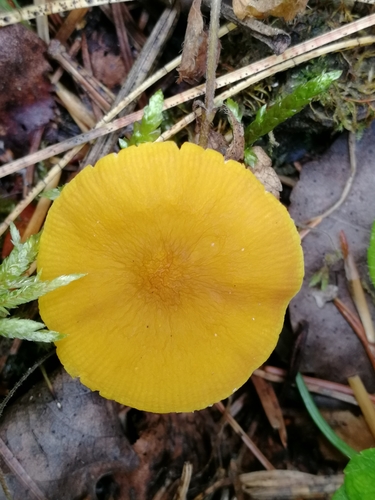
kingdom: Fungi
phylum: Basidiomycota
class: Agaricomycetes
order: Agaricales
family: Pluteaceae
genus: Pluteus
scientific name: Pluteus leoninus
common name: Lion shield
